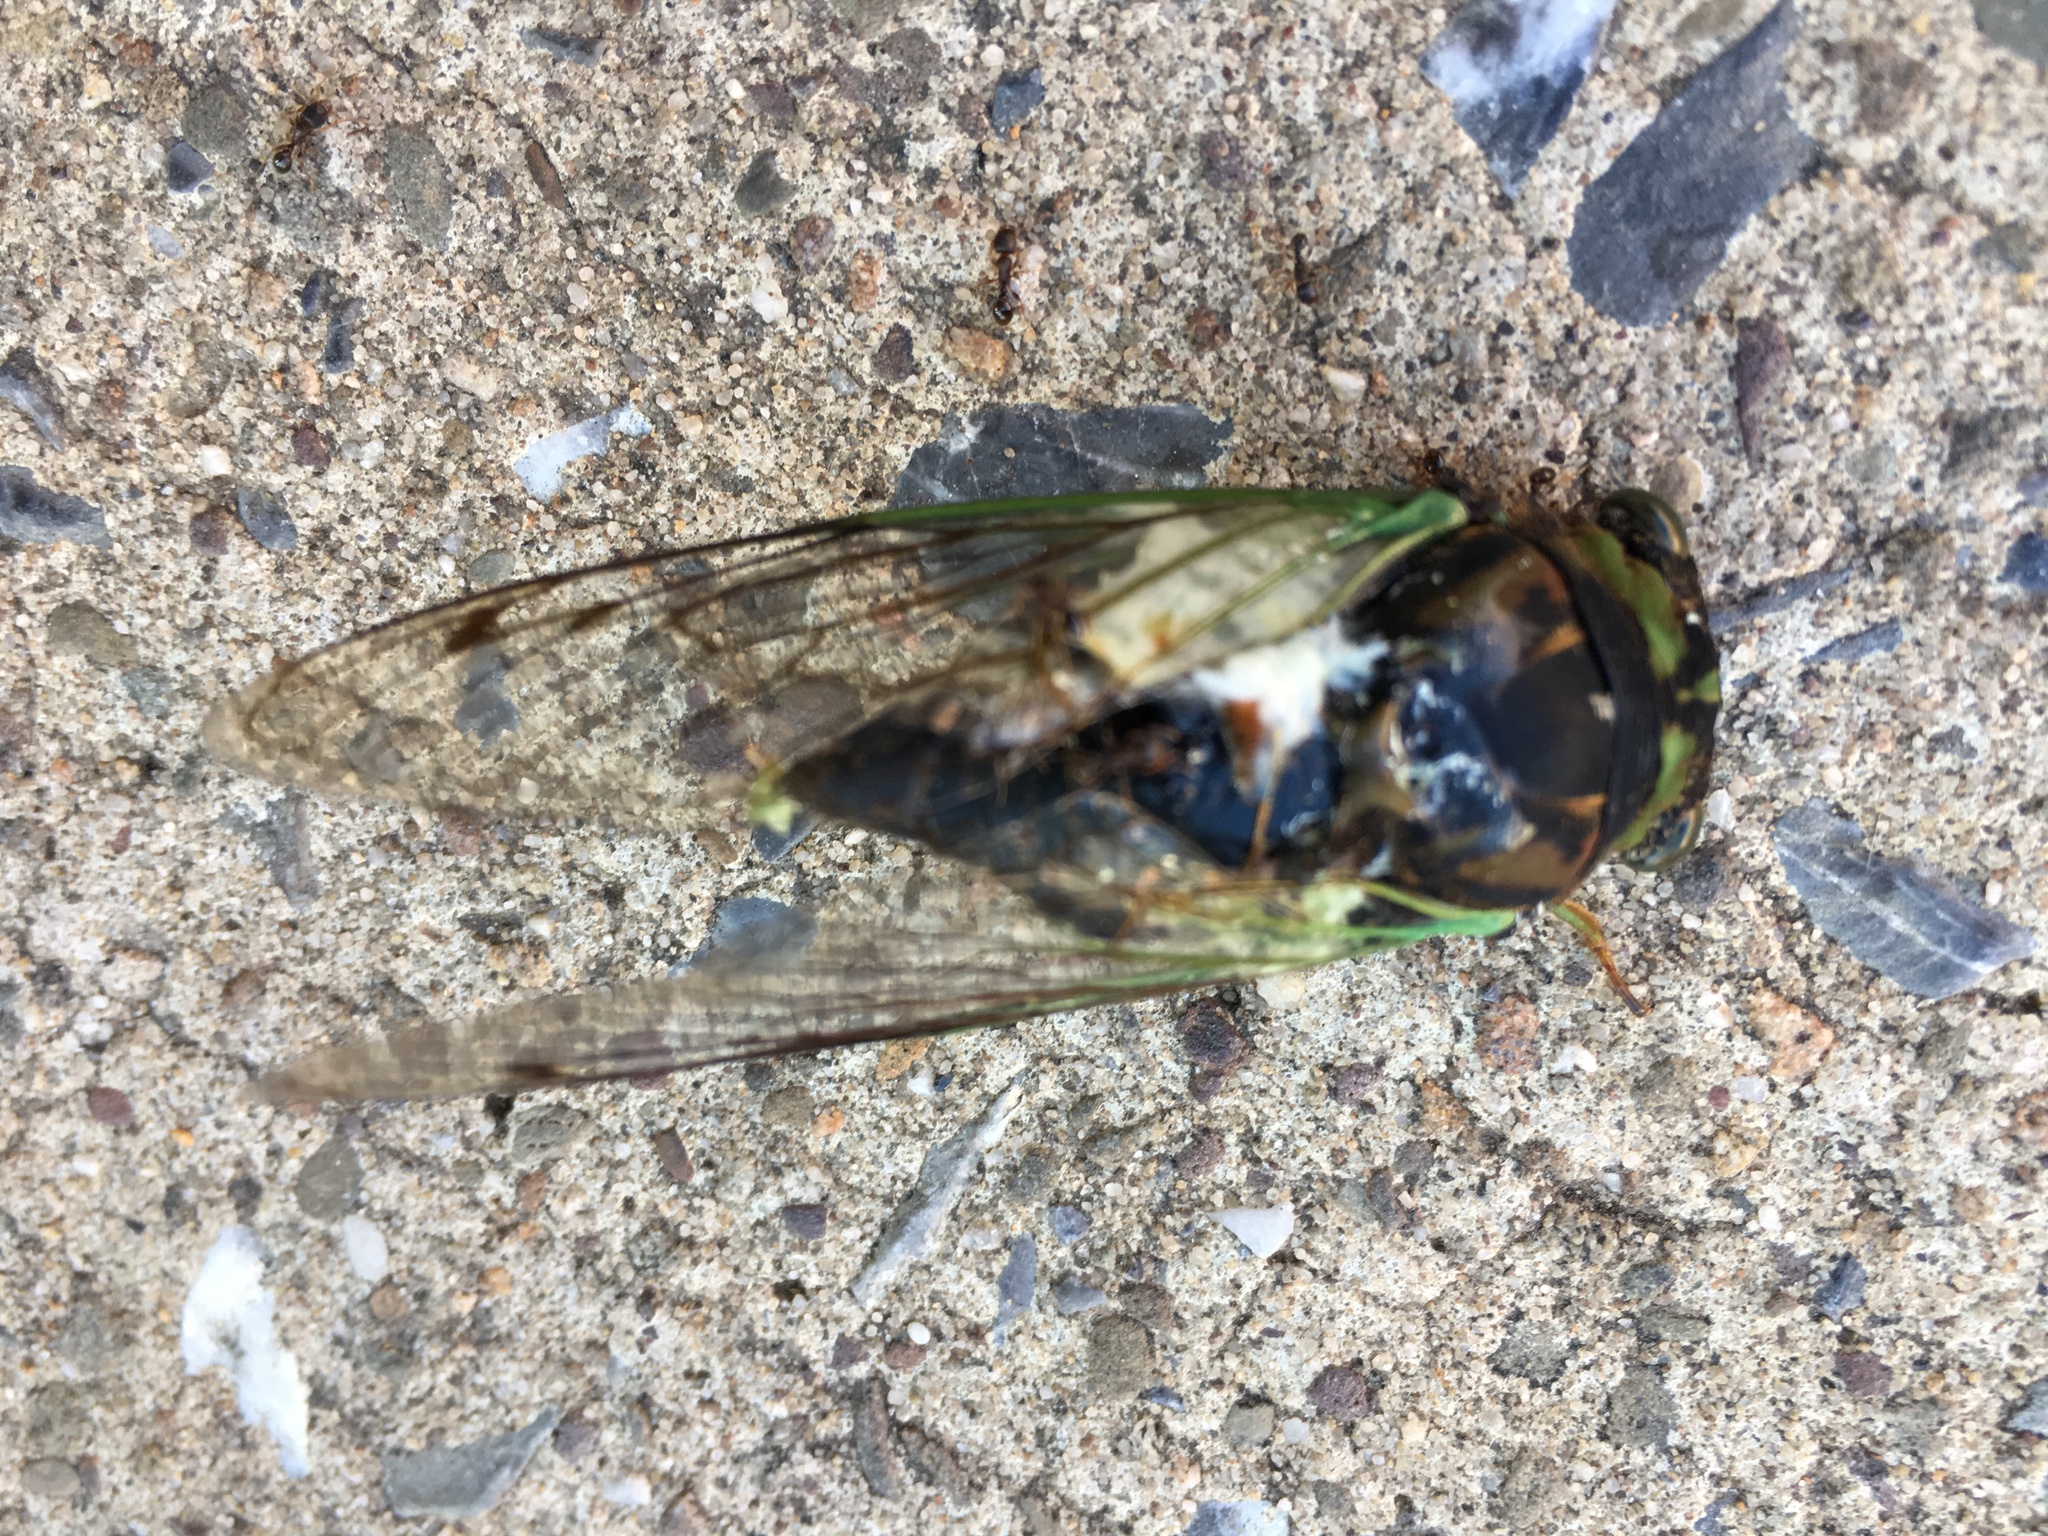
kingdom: Animalia
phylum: Arthropoda
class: Insecta
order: Hemiptera
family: Cicadidae
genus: Neotibicen
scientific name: Neotibicen tibicen
